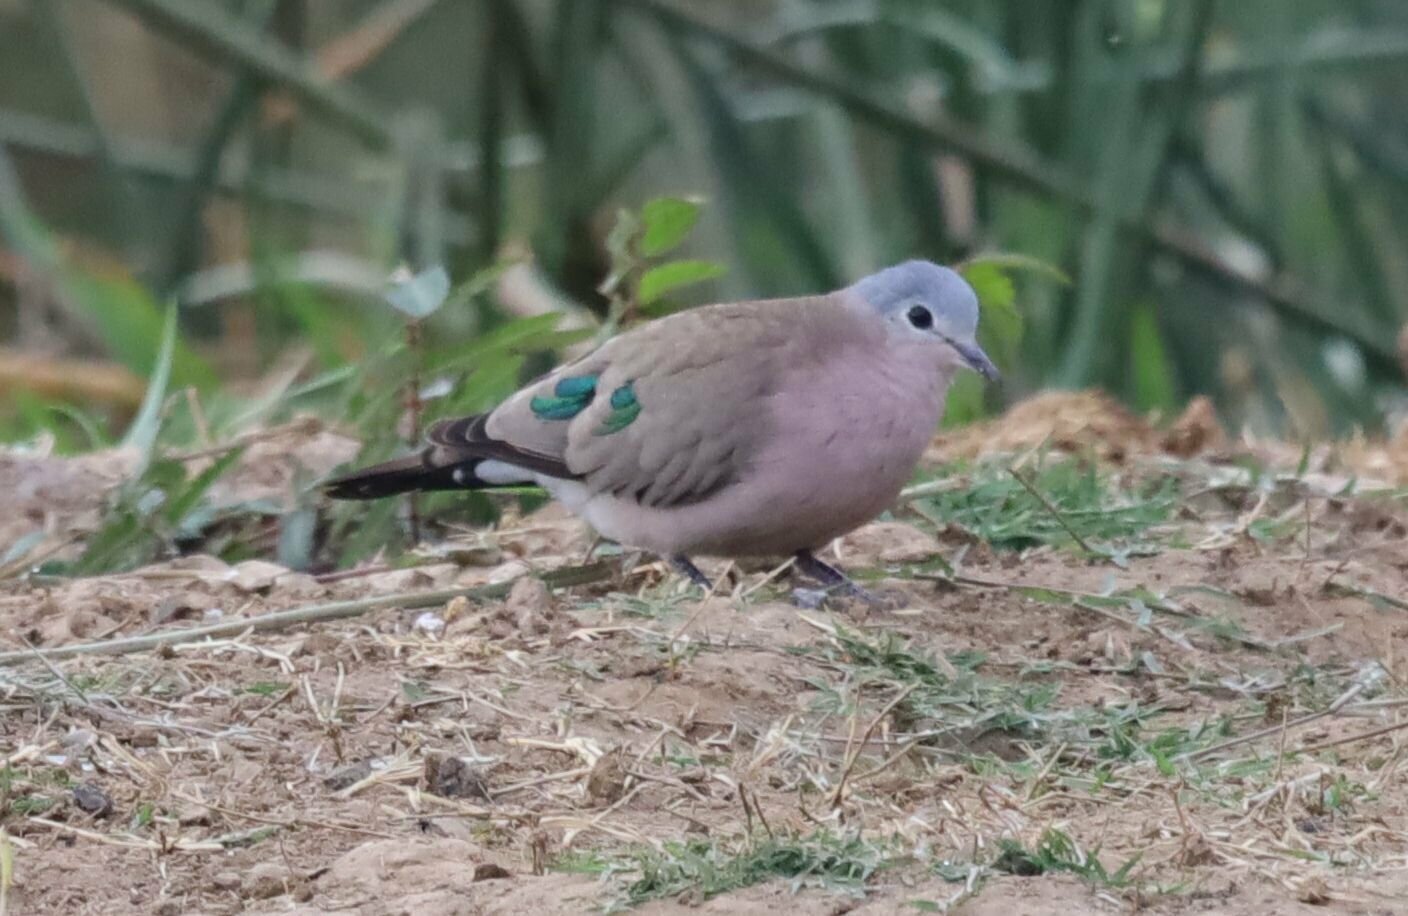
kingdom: Animalia
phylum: Chordata
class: Aves
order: Columbiformes
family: Columbidae
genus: Turtur
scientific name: Turtur chalcospilos
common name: Emerald-spotted wood dove
